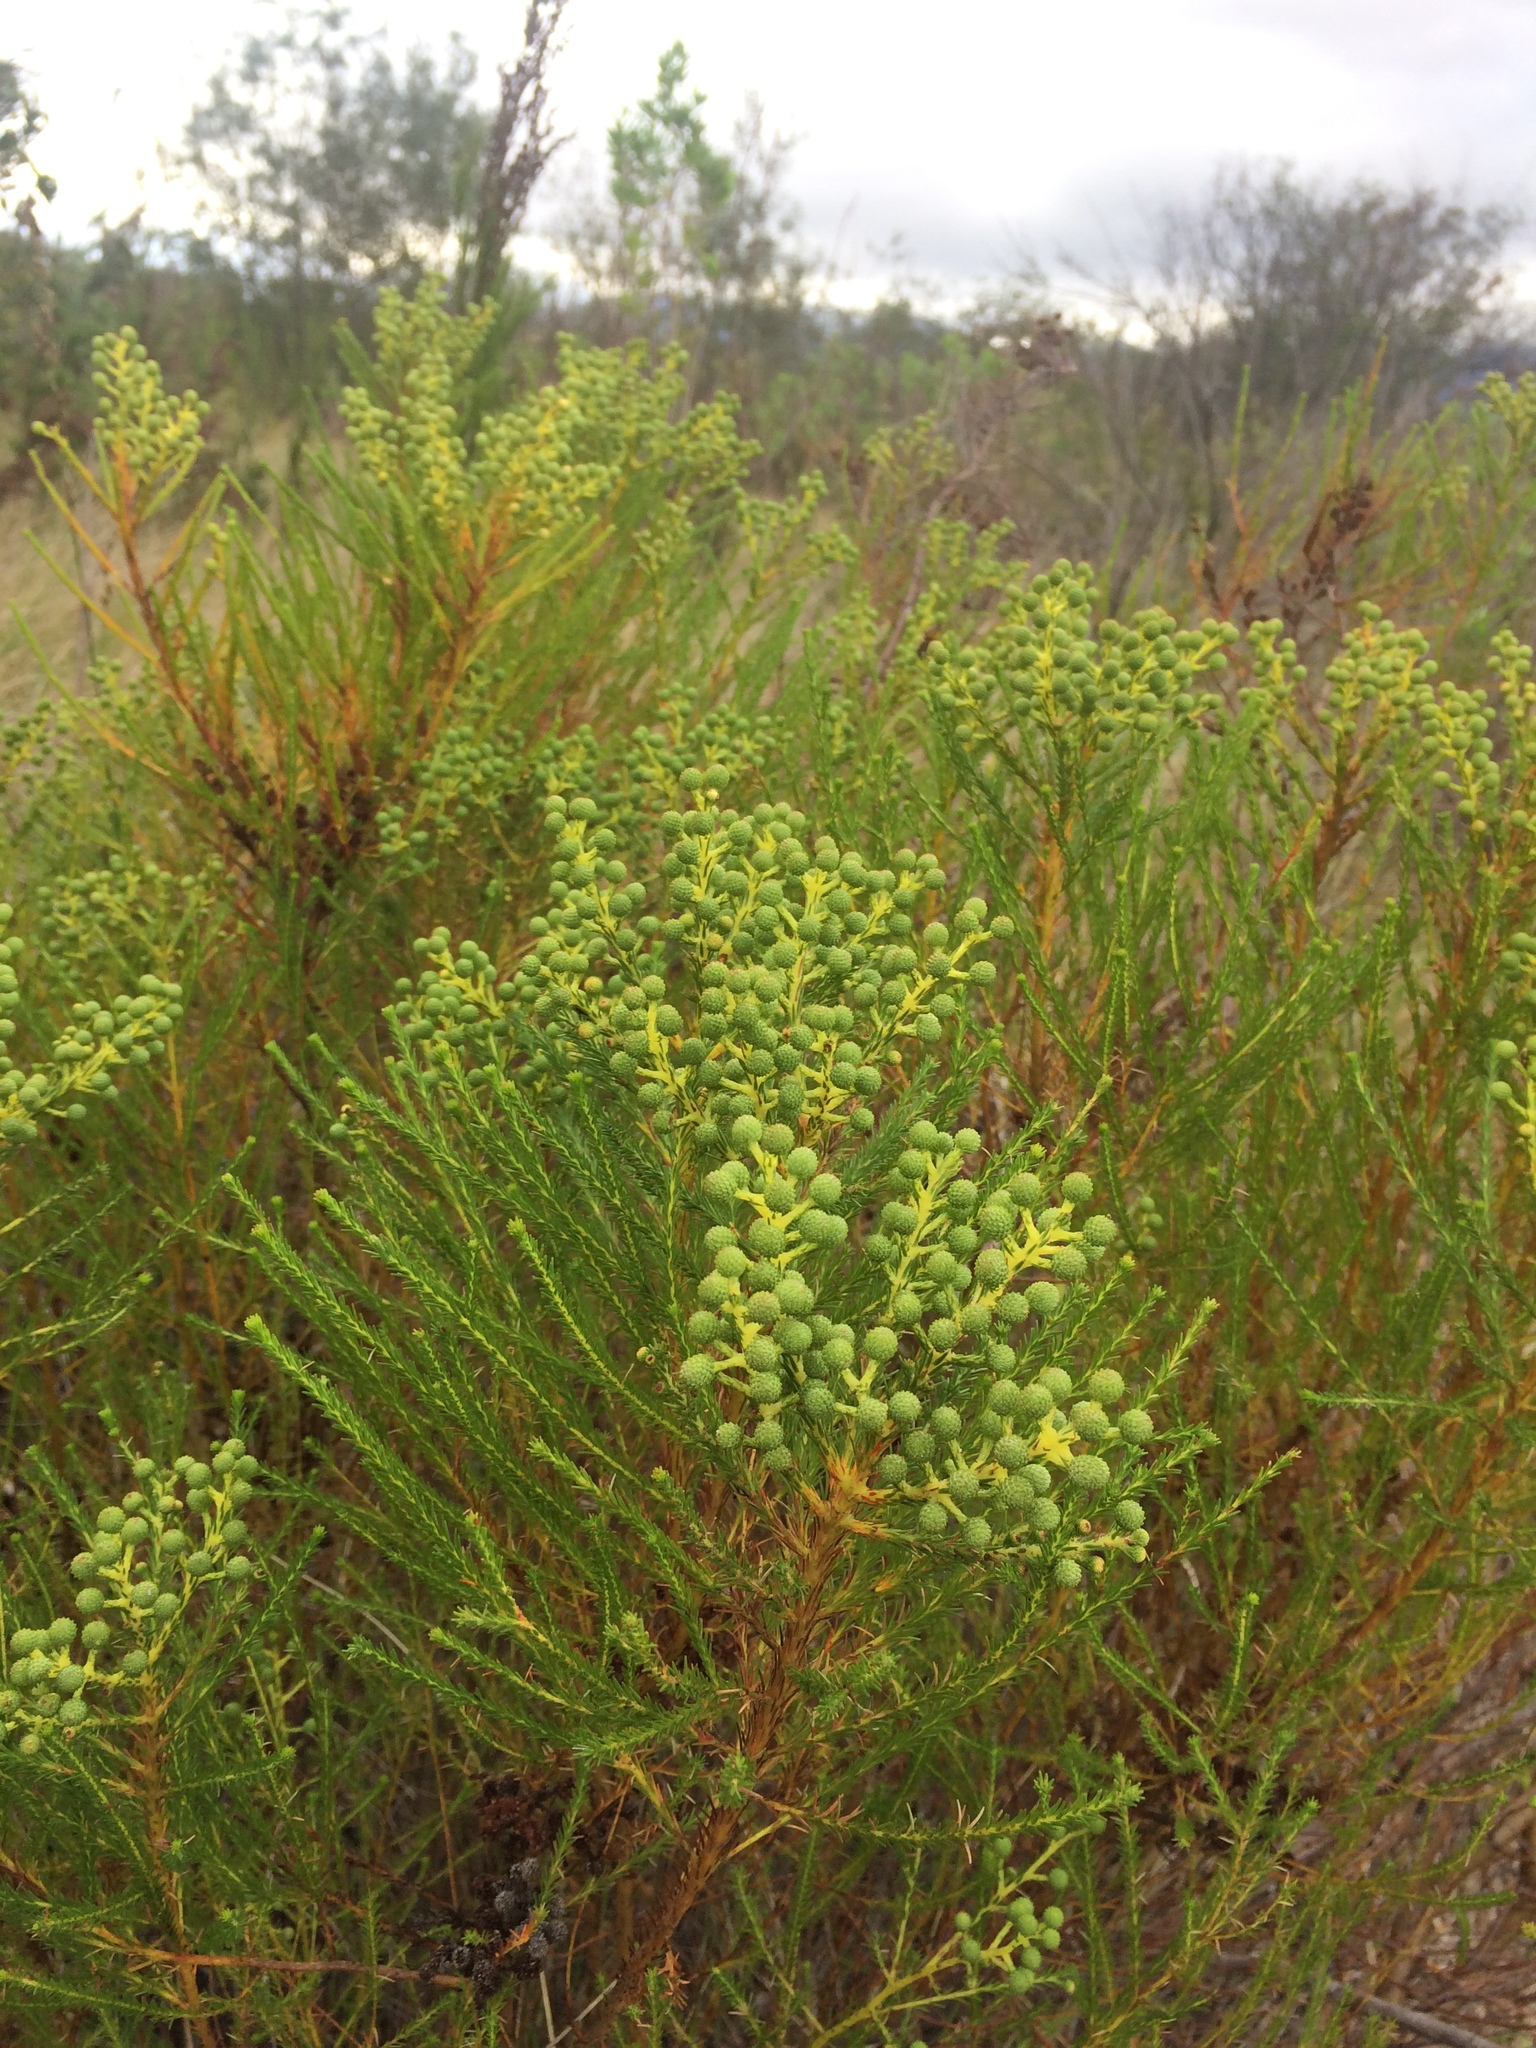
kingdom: Plantae
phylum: Tracheophyta
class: Magnoliopsida
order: Bruniales
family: Bruniaceae
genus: Berzelia
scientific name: Berzelia lanuginosa
